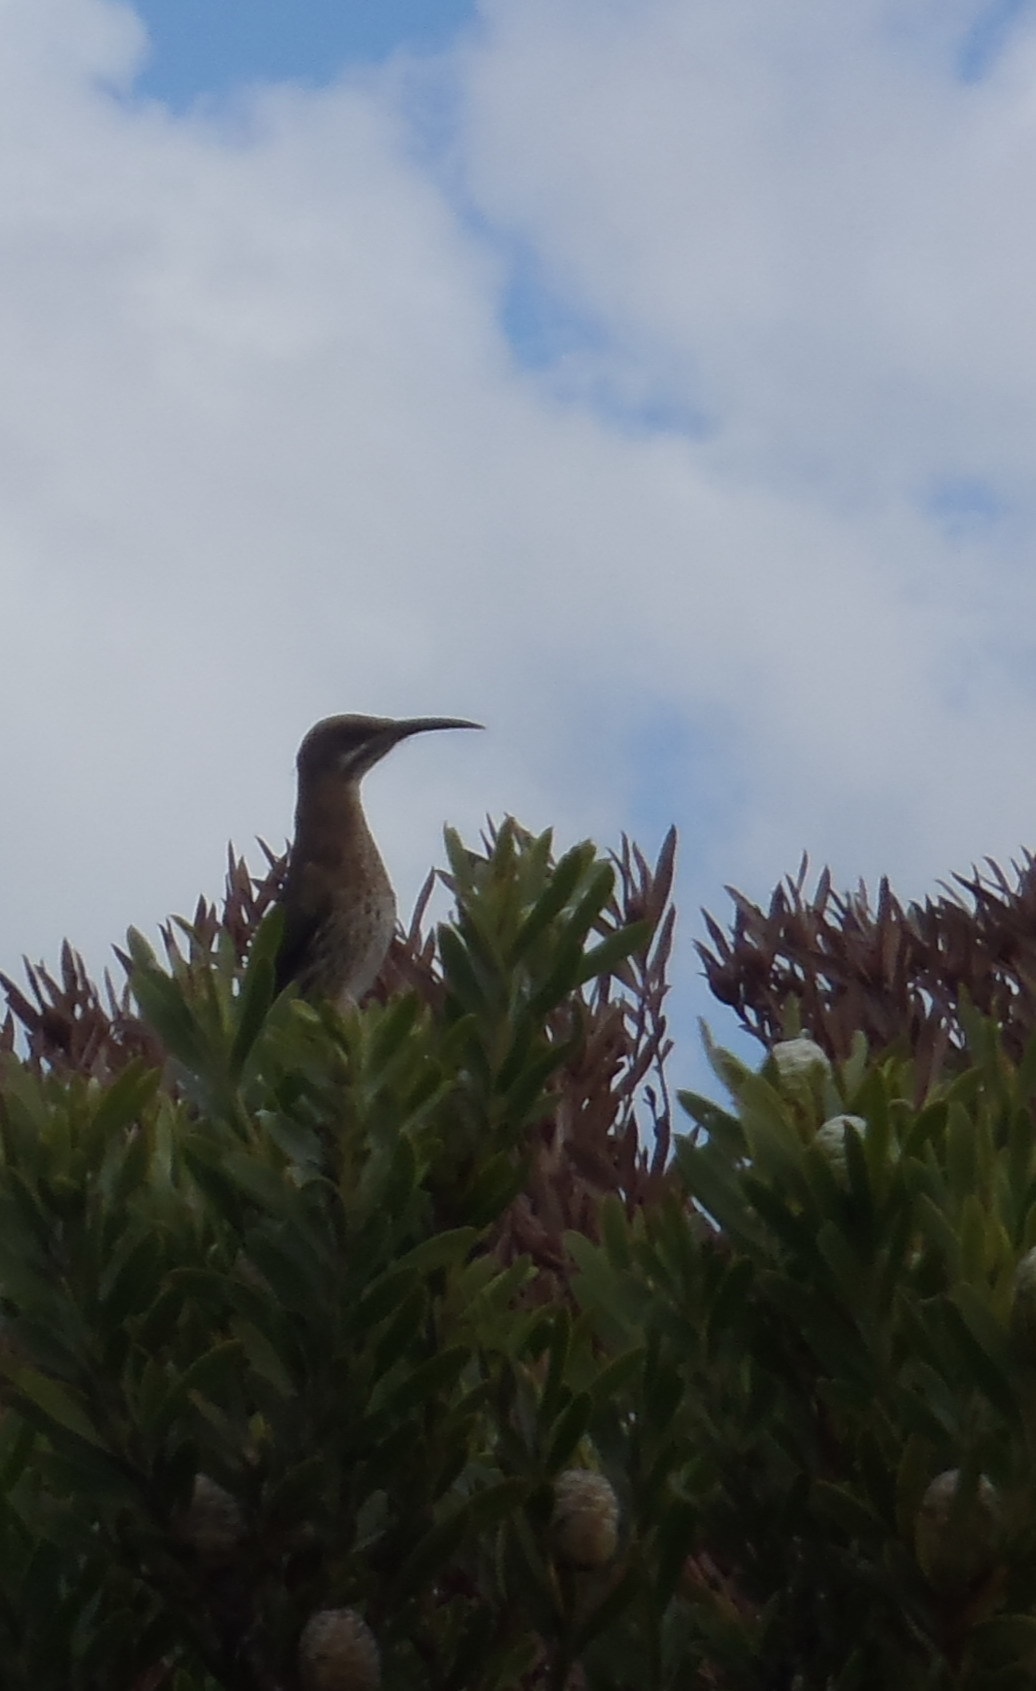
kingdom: Animalia
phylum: Chordata
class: Aves
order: Passeriformes
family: Promeropidae
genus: Promerops
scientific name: Promerops cafer
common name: Cape sugarbird
